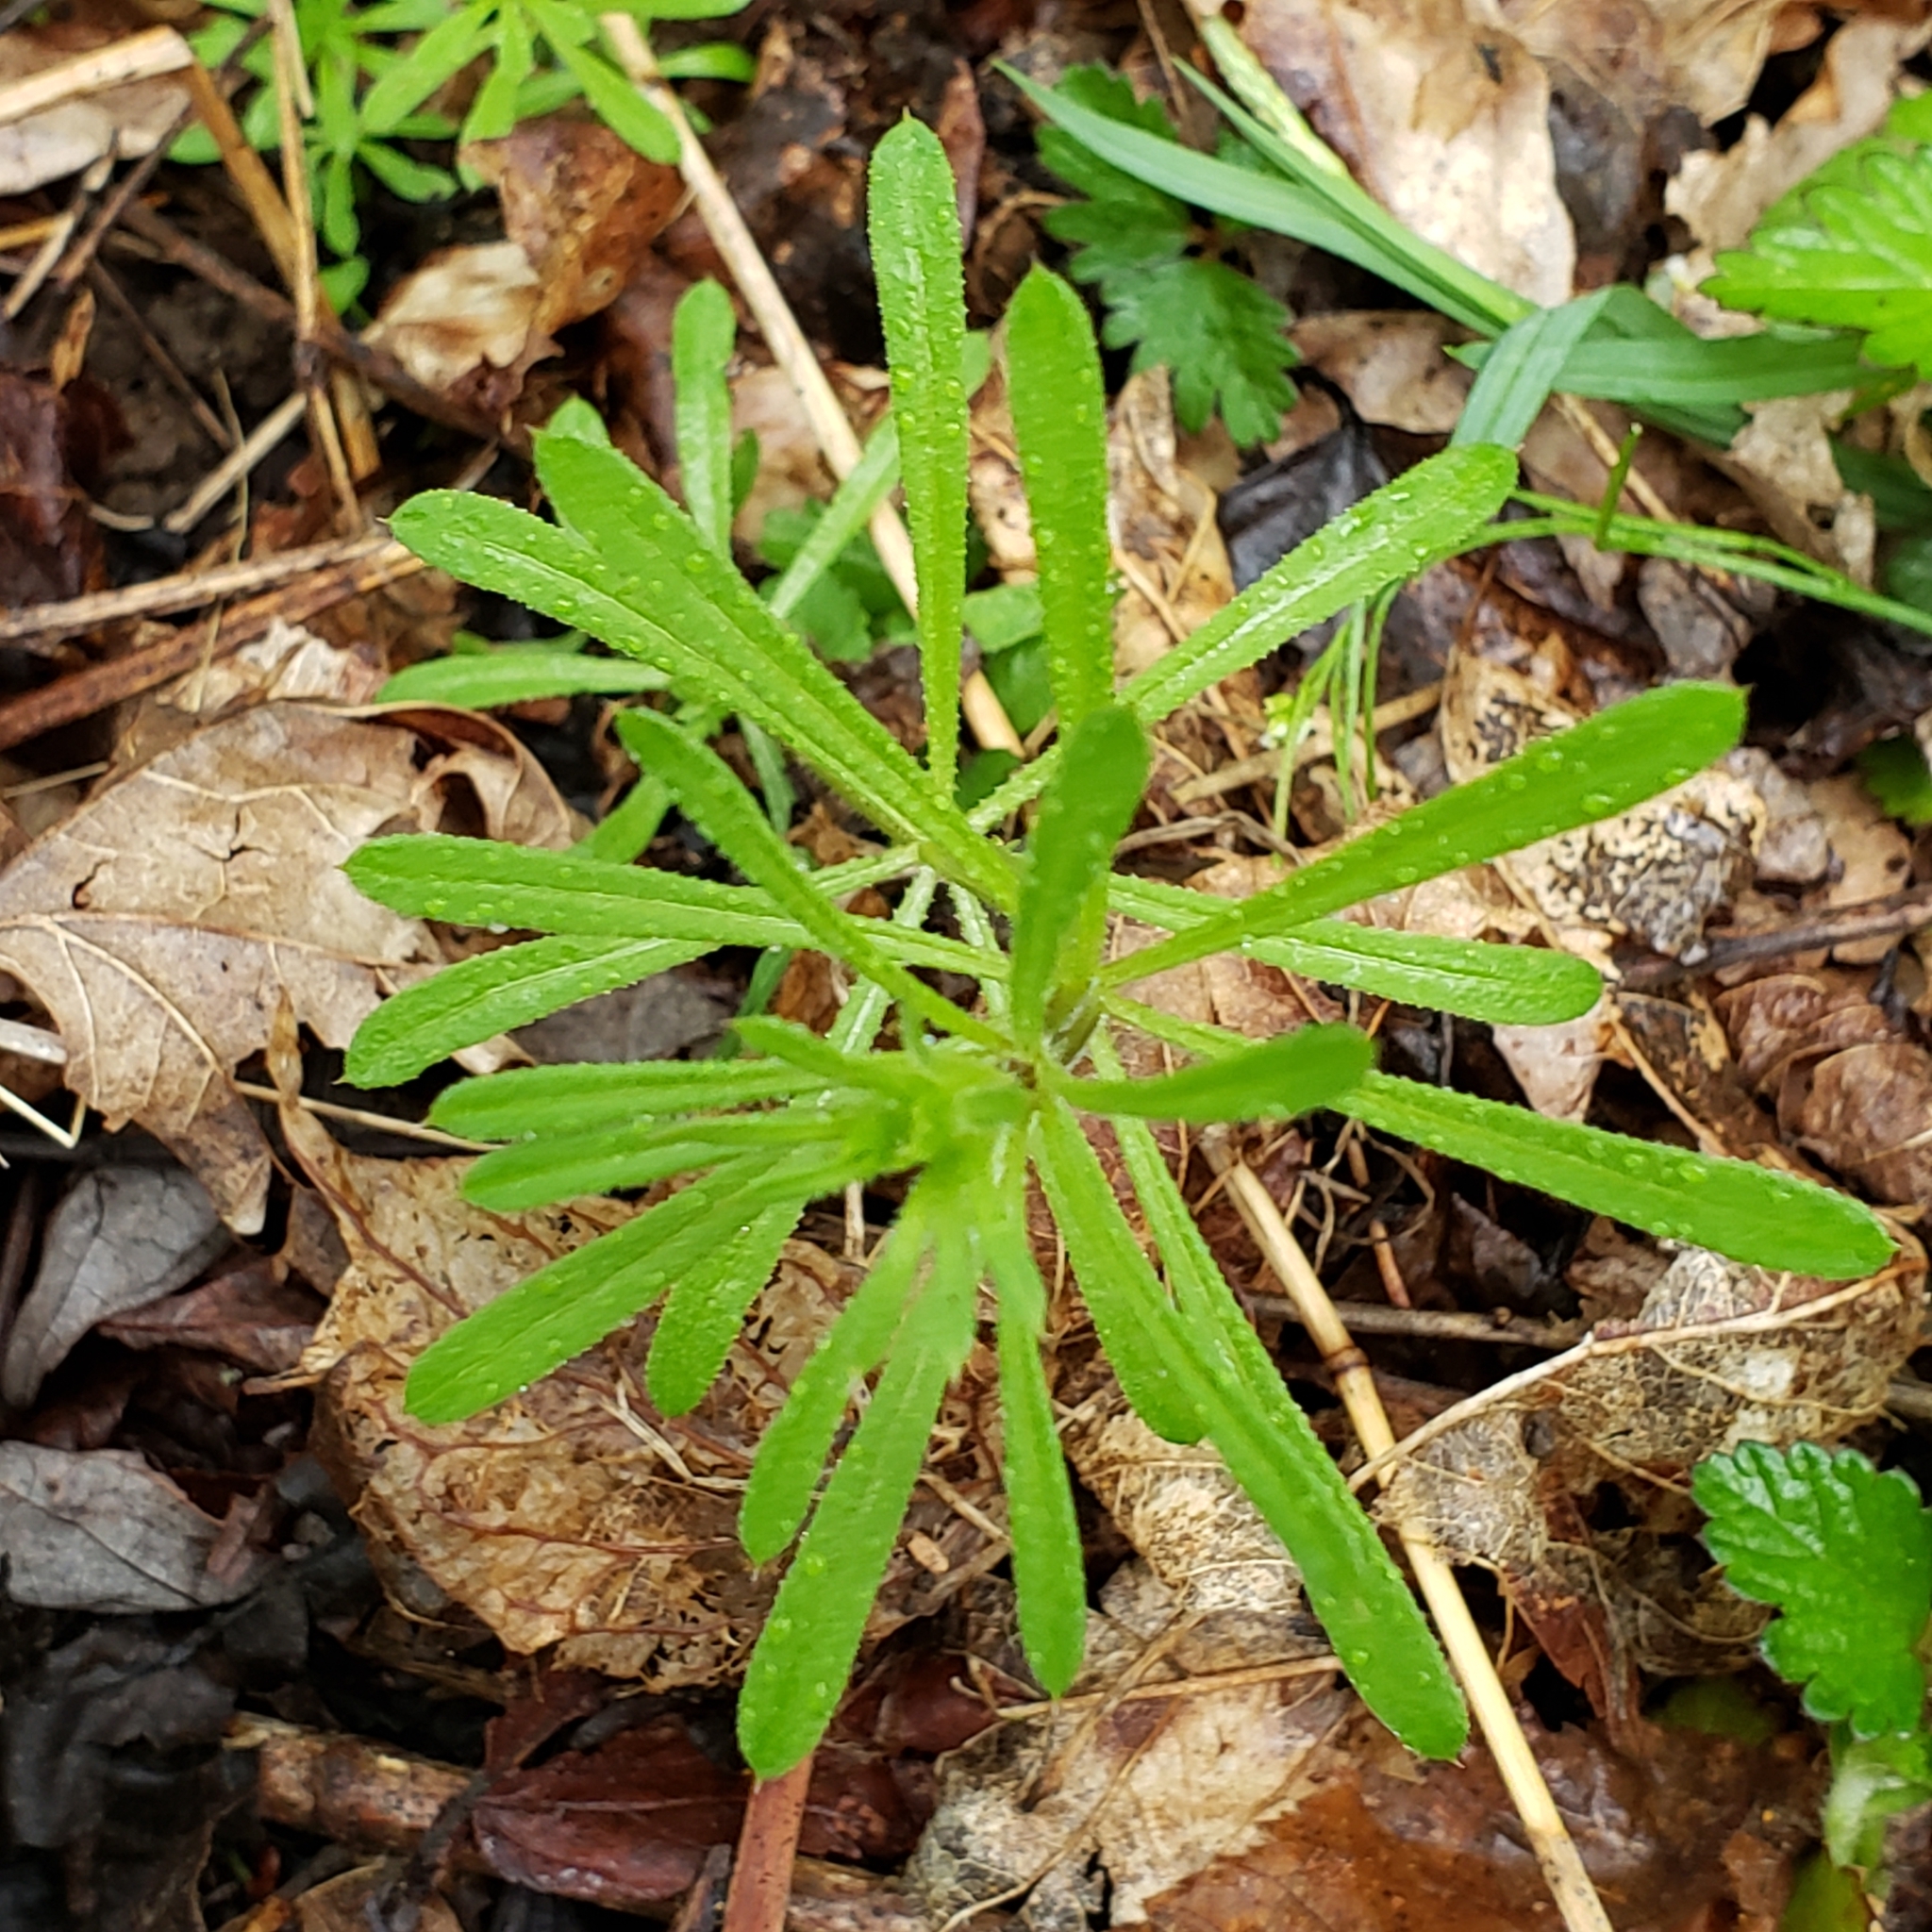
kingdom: Plantae
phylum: Tracheophyta
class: Magnoliopsida
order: Gentianales
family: Rubiaceae
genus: Galium
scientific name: Galium aparine
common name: Cleavers
